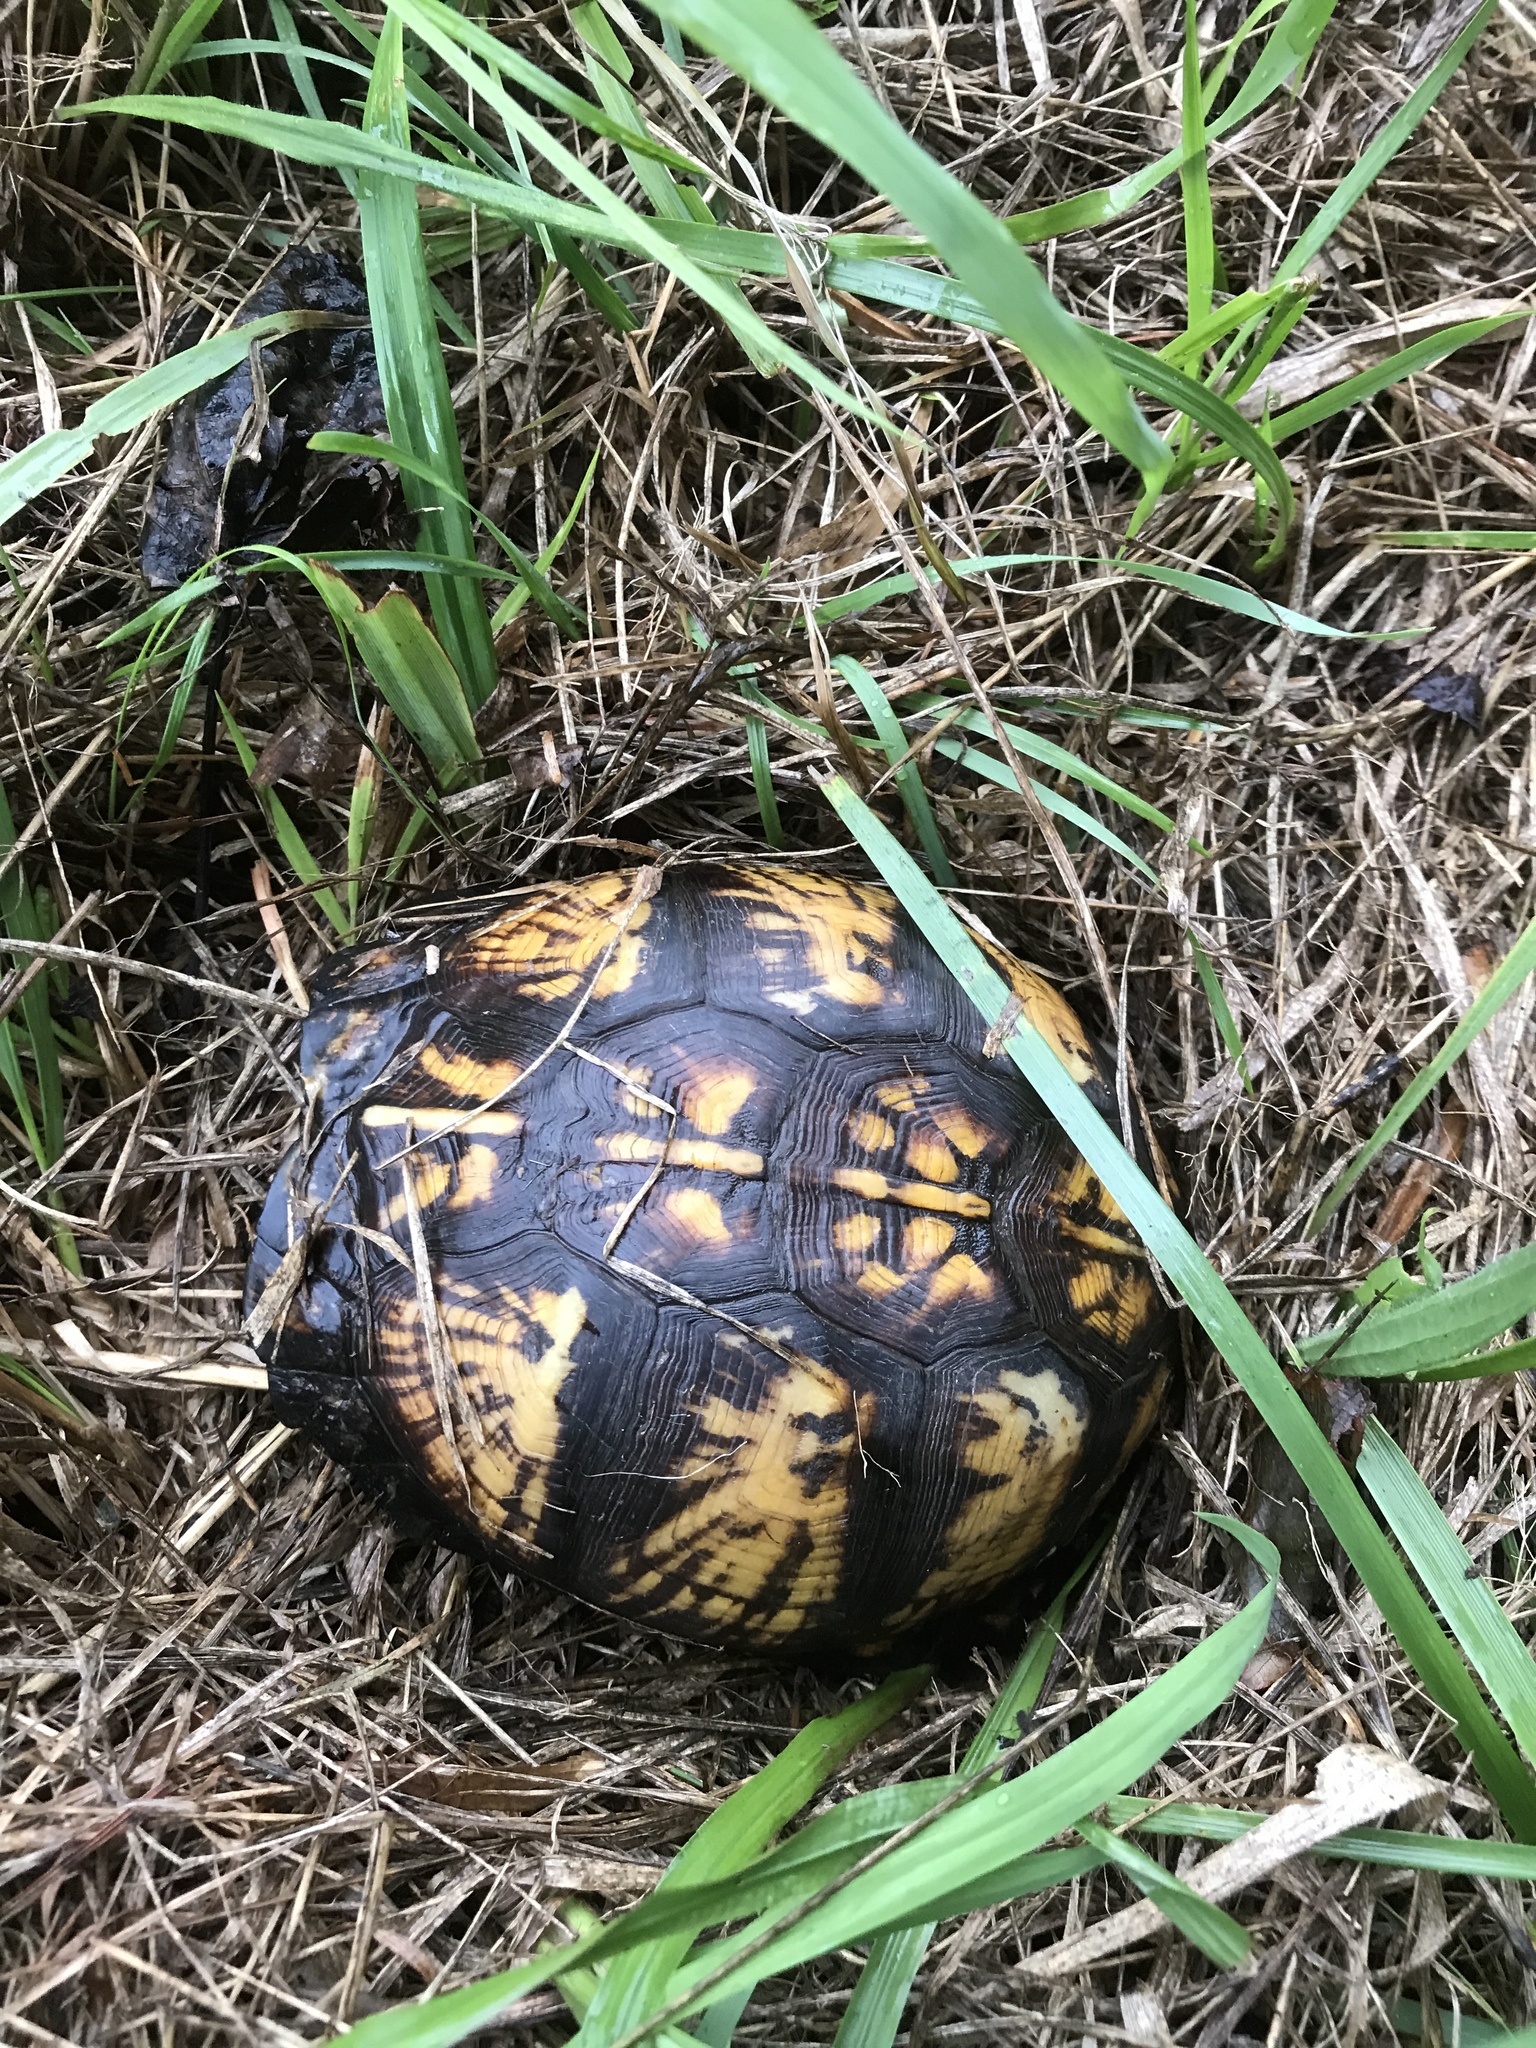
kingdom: Animalia
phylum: Chordata
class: Testudines
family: Emydidae
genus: Terrapene
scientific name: Terrapene carolina
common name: Common box turtle
